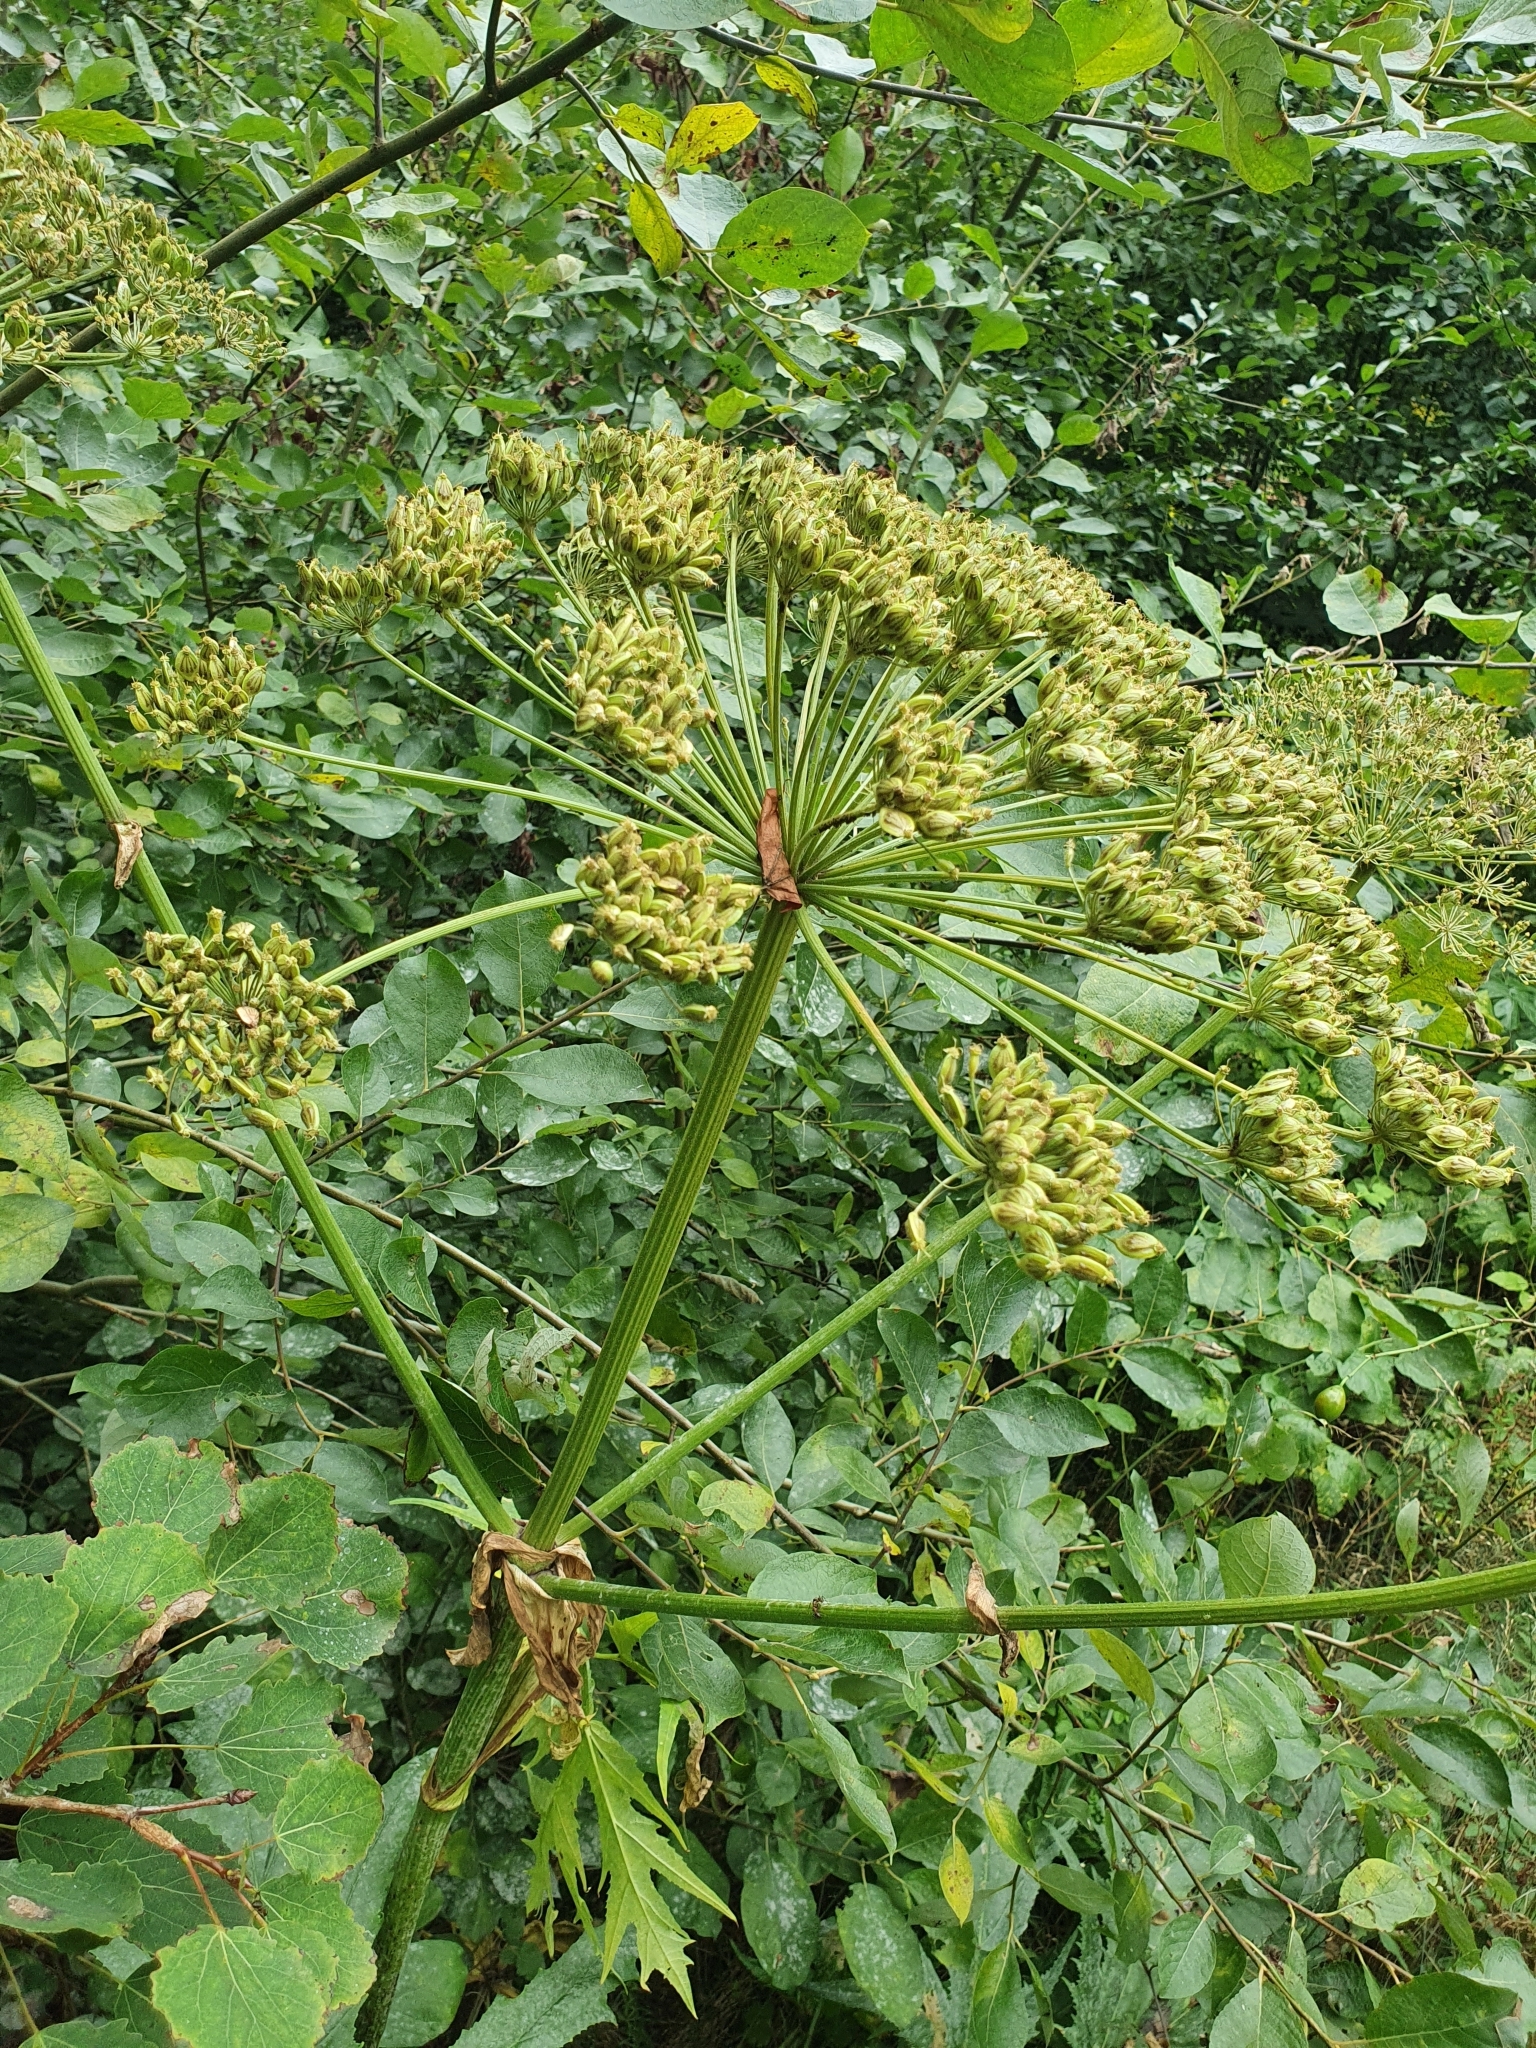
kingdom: Plantae
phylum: Tracheophyta
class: Magnoliopsida
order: Apiales
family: Apiaceae
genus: Heracleum
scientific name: Heracleum mantegazzianum
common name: Giant hogweed
